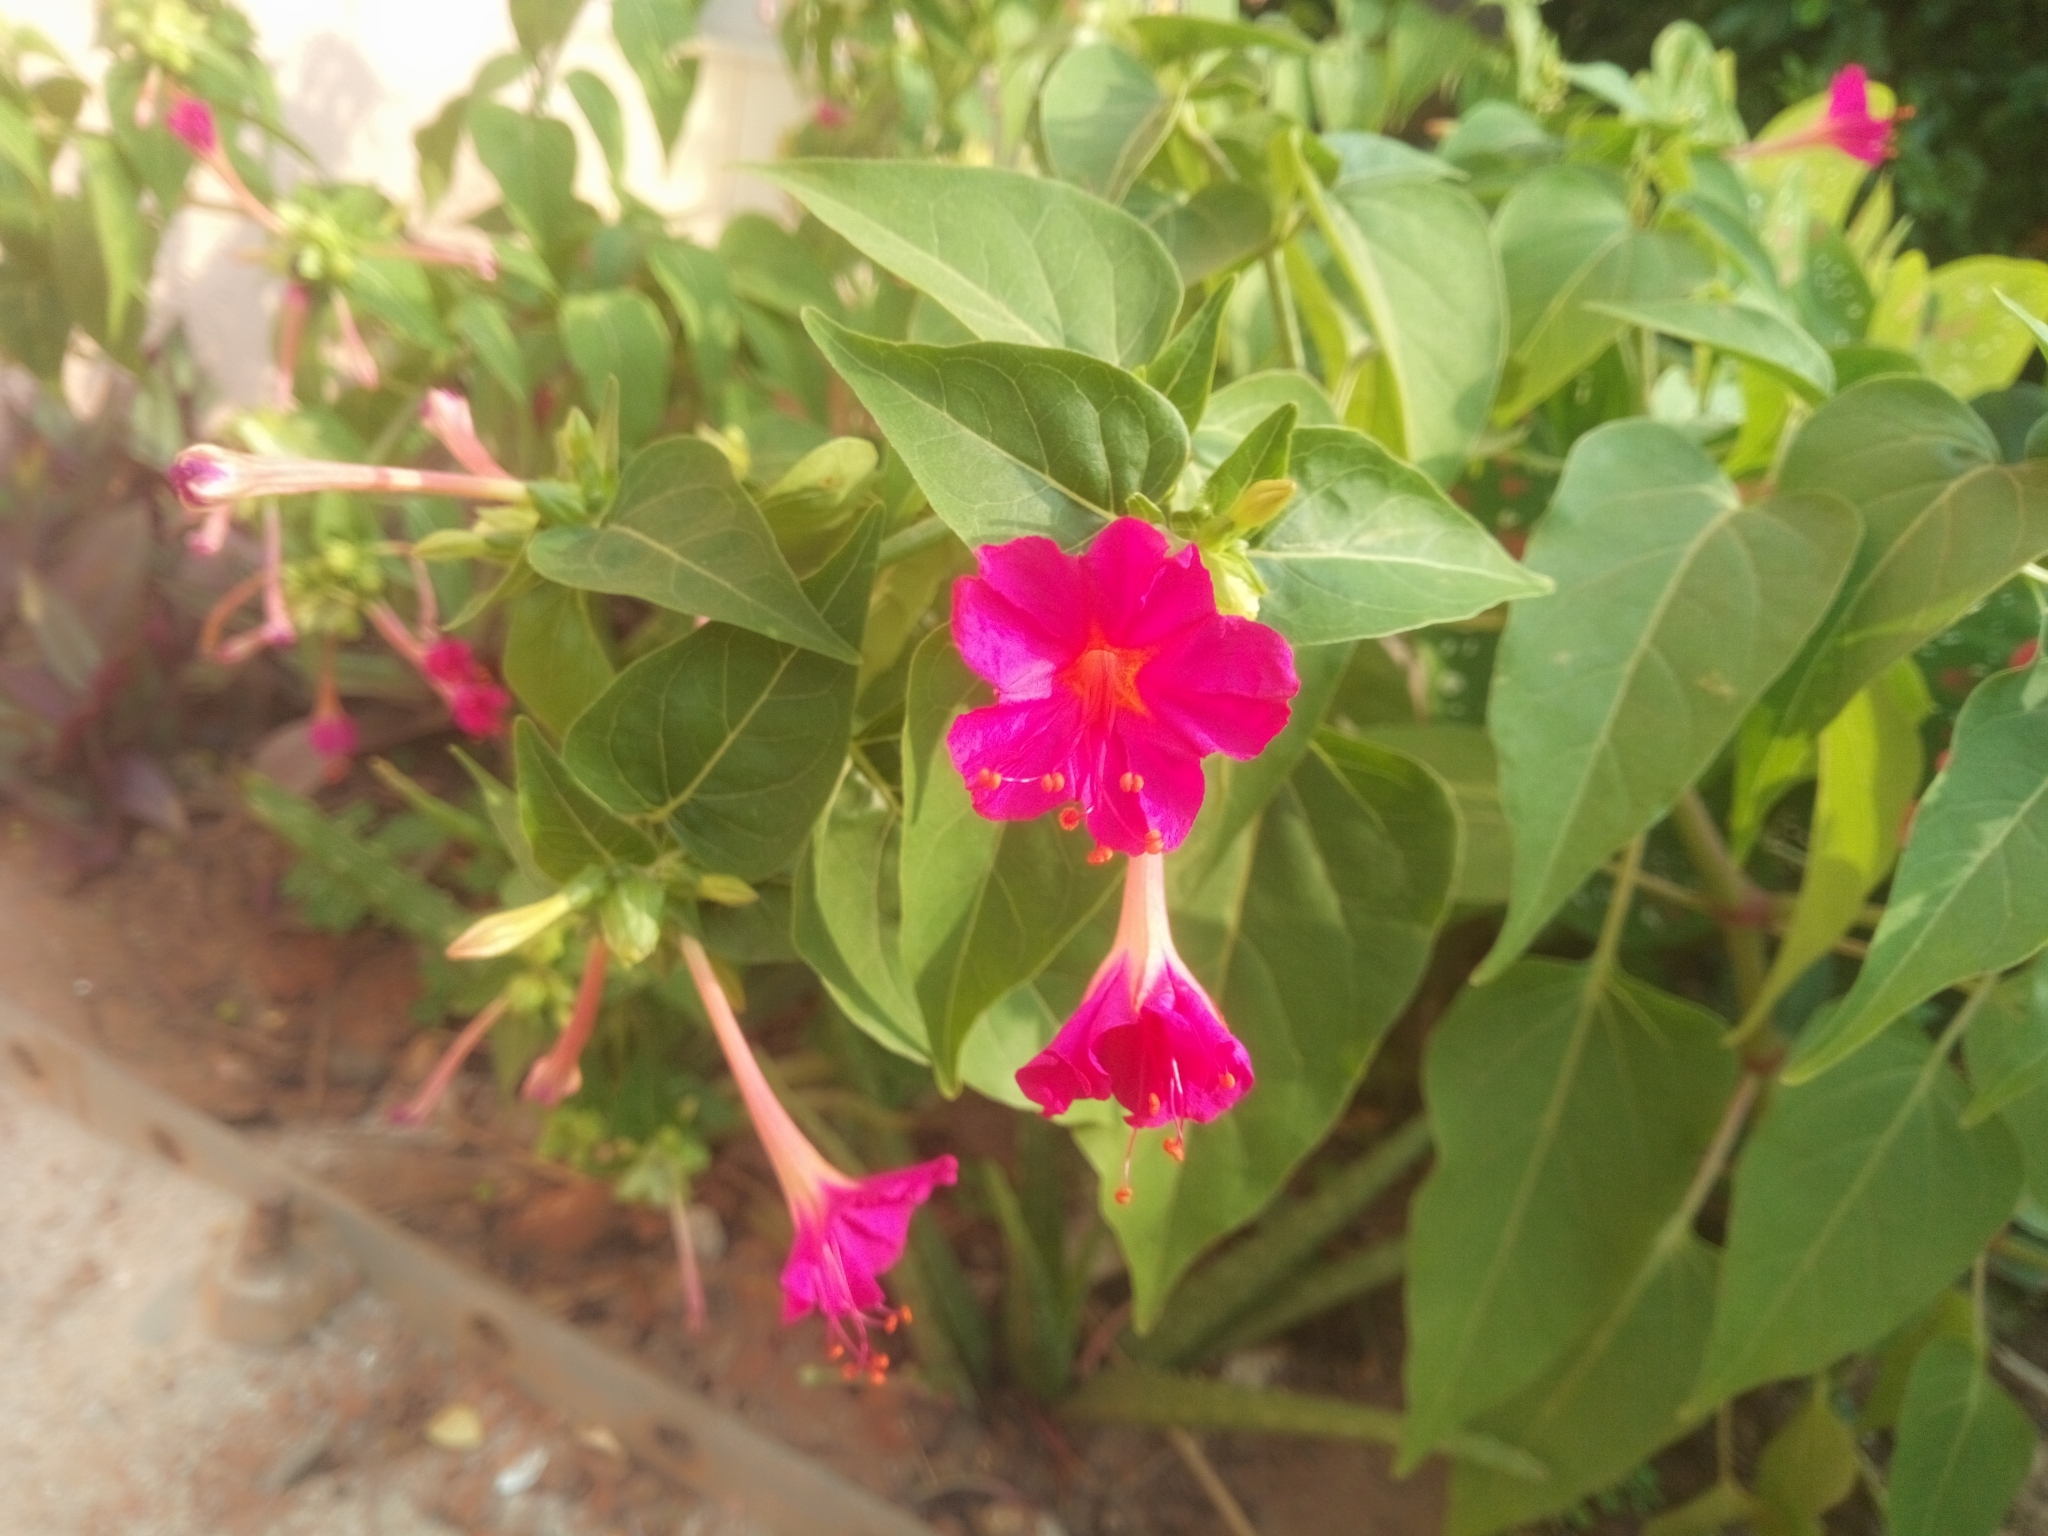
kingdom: Plantae
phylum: Tracheophyta
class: Magnoliopsida
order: Caryophyllales
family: Nyctaginaceae
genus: Mirabilis
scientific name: Mirabilis jalapa
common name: Marvel-of-peru
